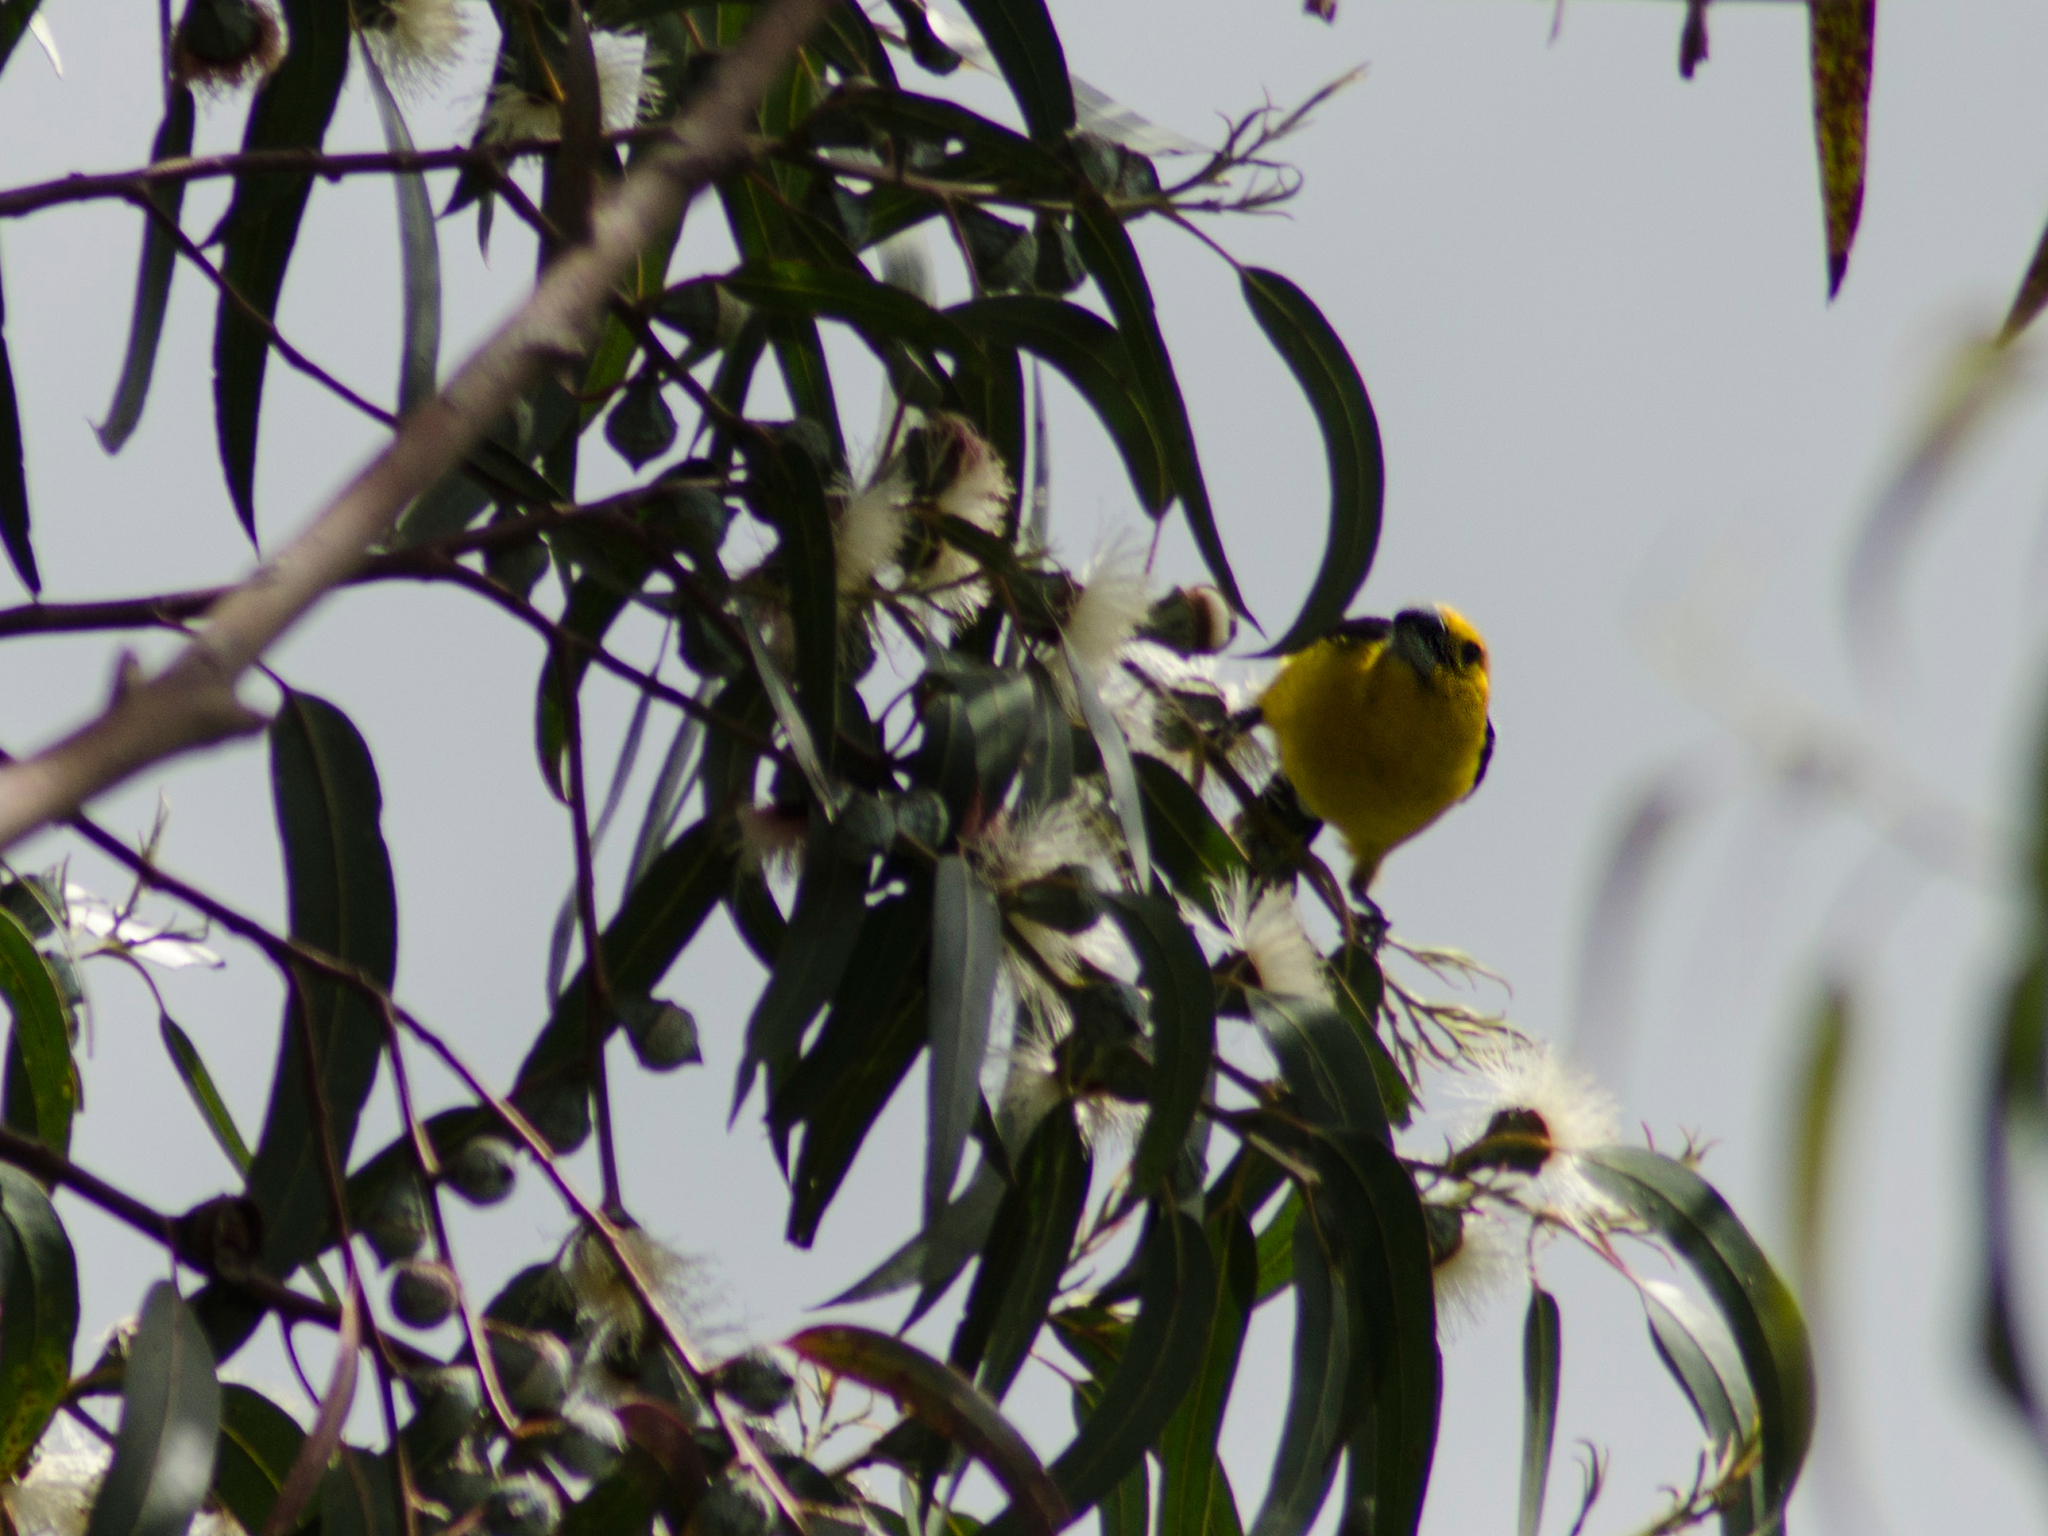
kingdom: Animalia
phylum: Chordata
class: Aves
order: Passeriformes
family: Cardinalidae
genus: Pheucticus
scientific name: Pheucticus chrysogaster
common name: Golden grosbeak
